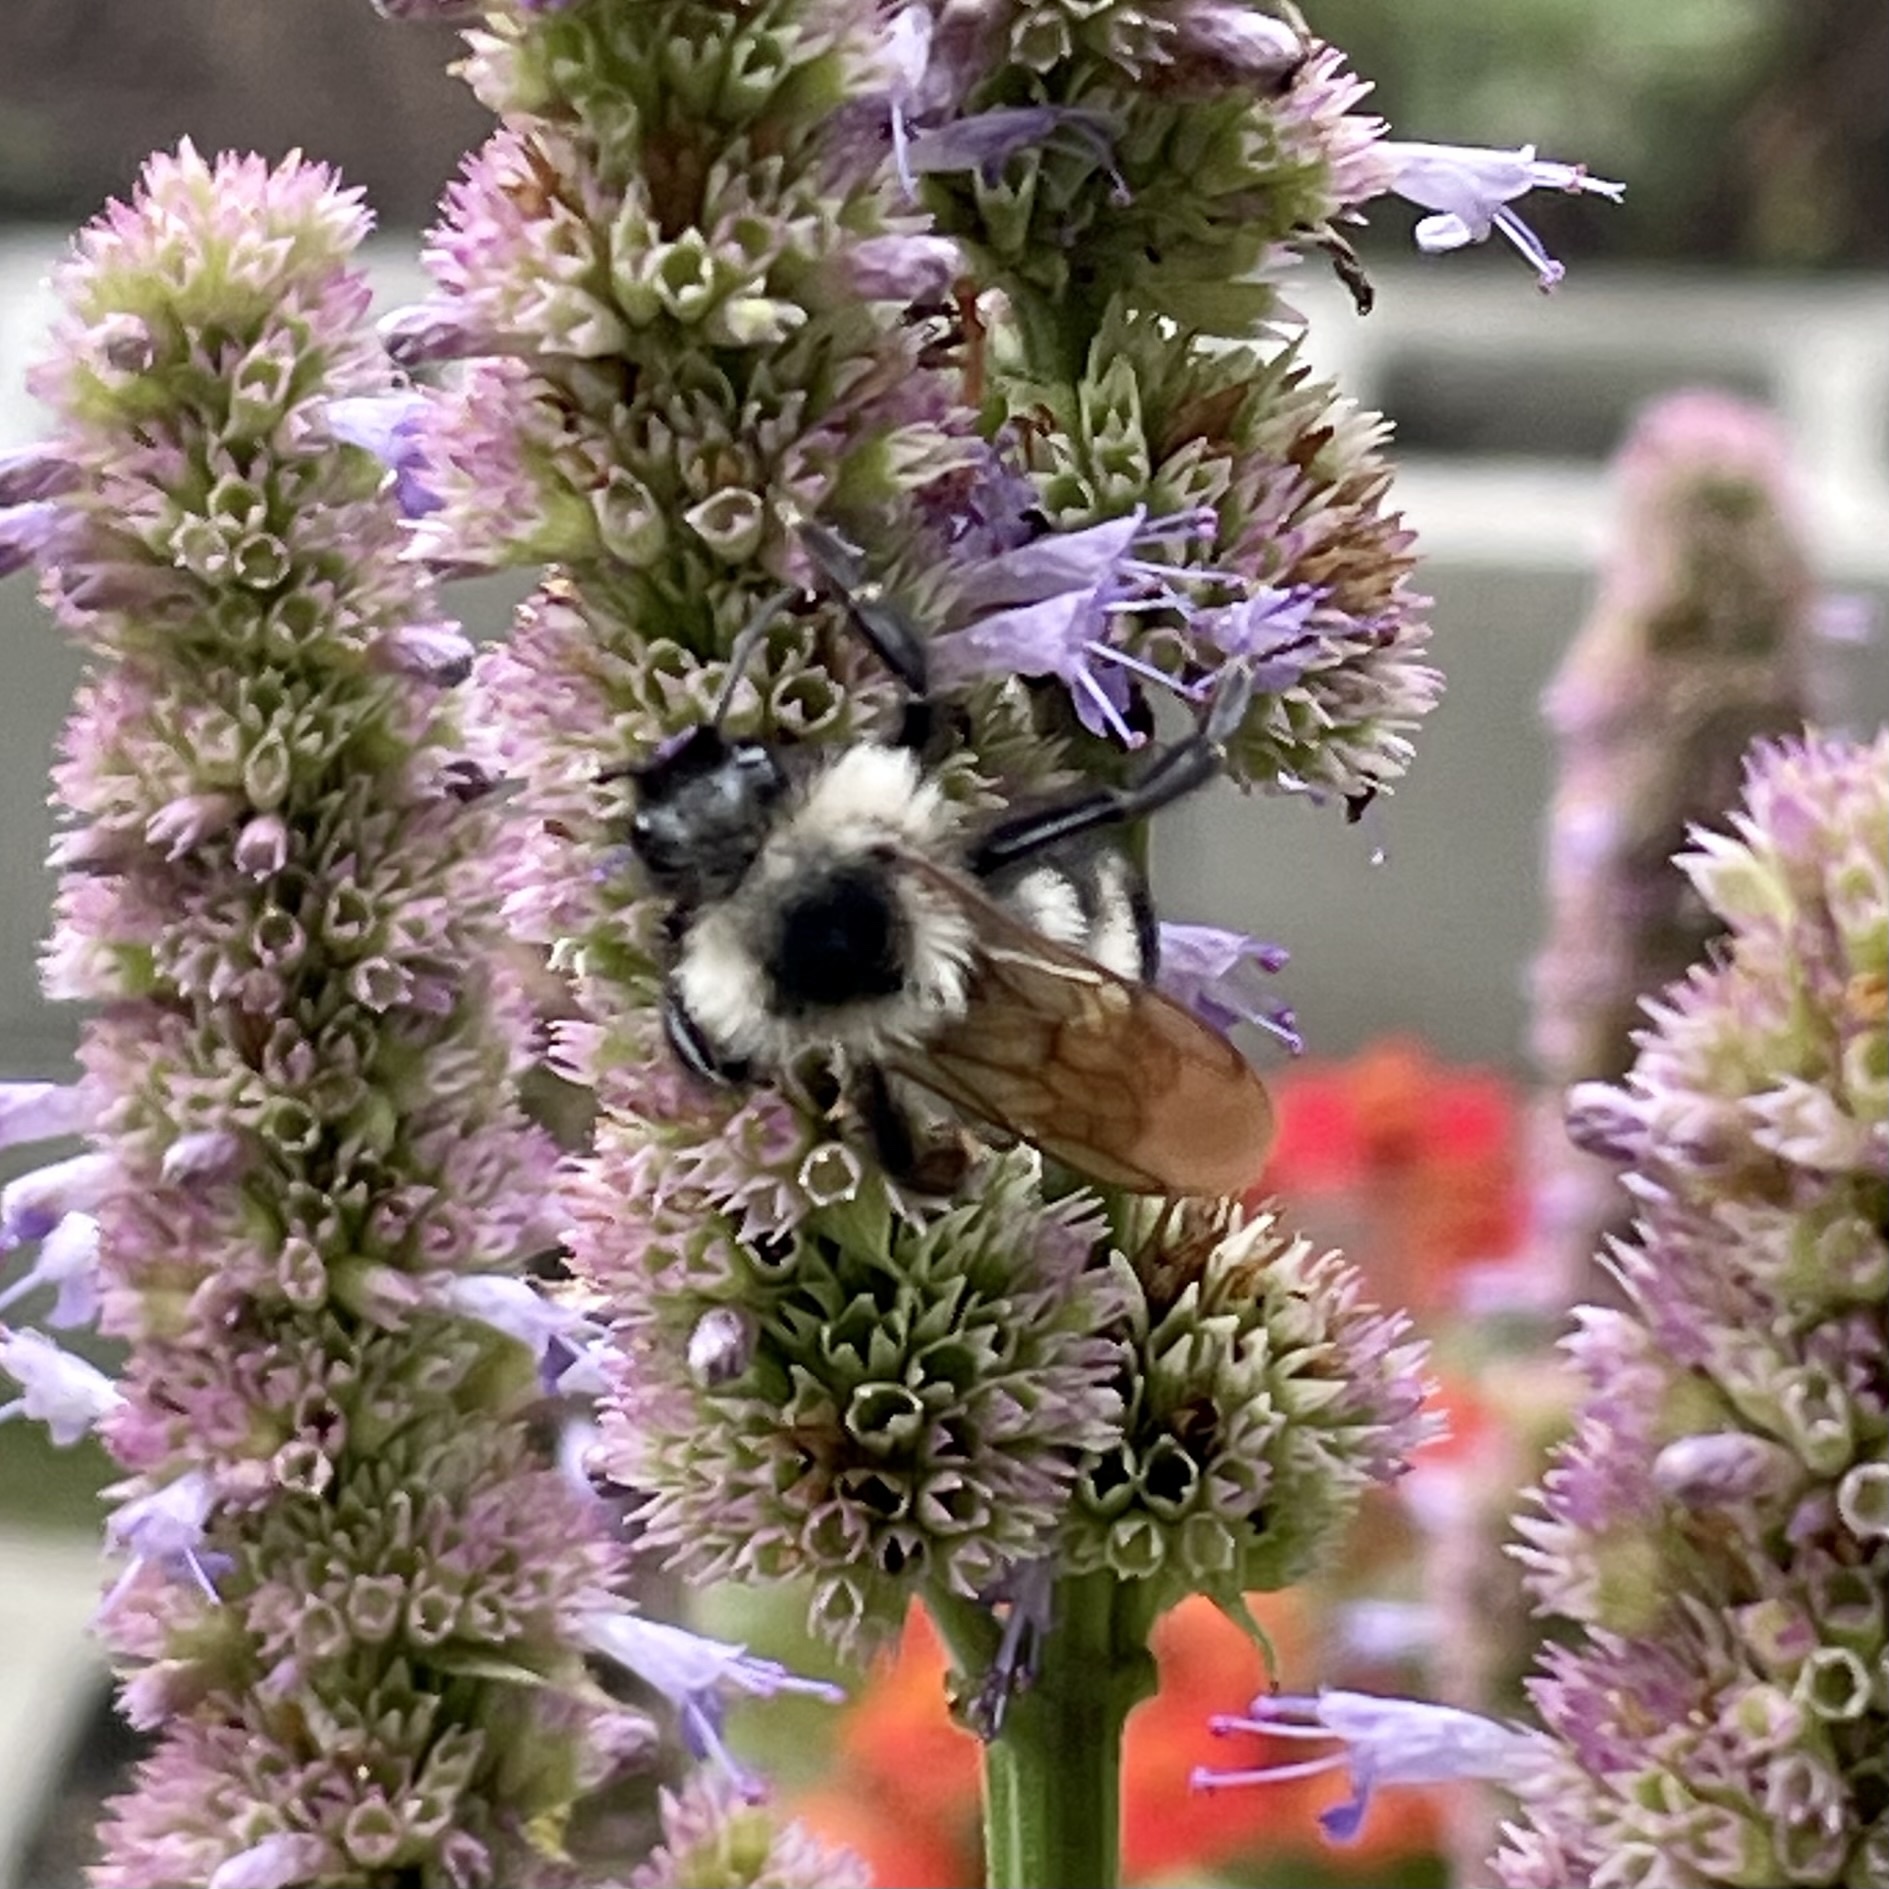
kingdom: Animalia
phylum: Arthropoda
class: Insecta
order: Hymenoptera
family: Apidae
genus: Bombus
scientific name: Bombus citrinus
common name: Lemon cuckoo bumble bee
